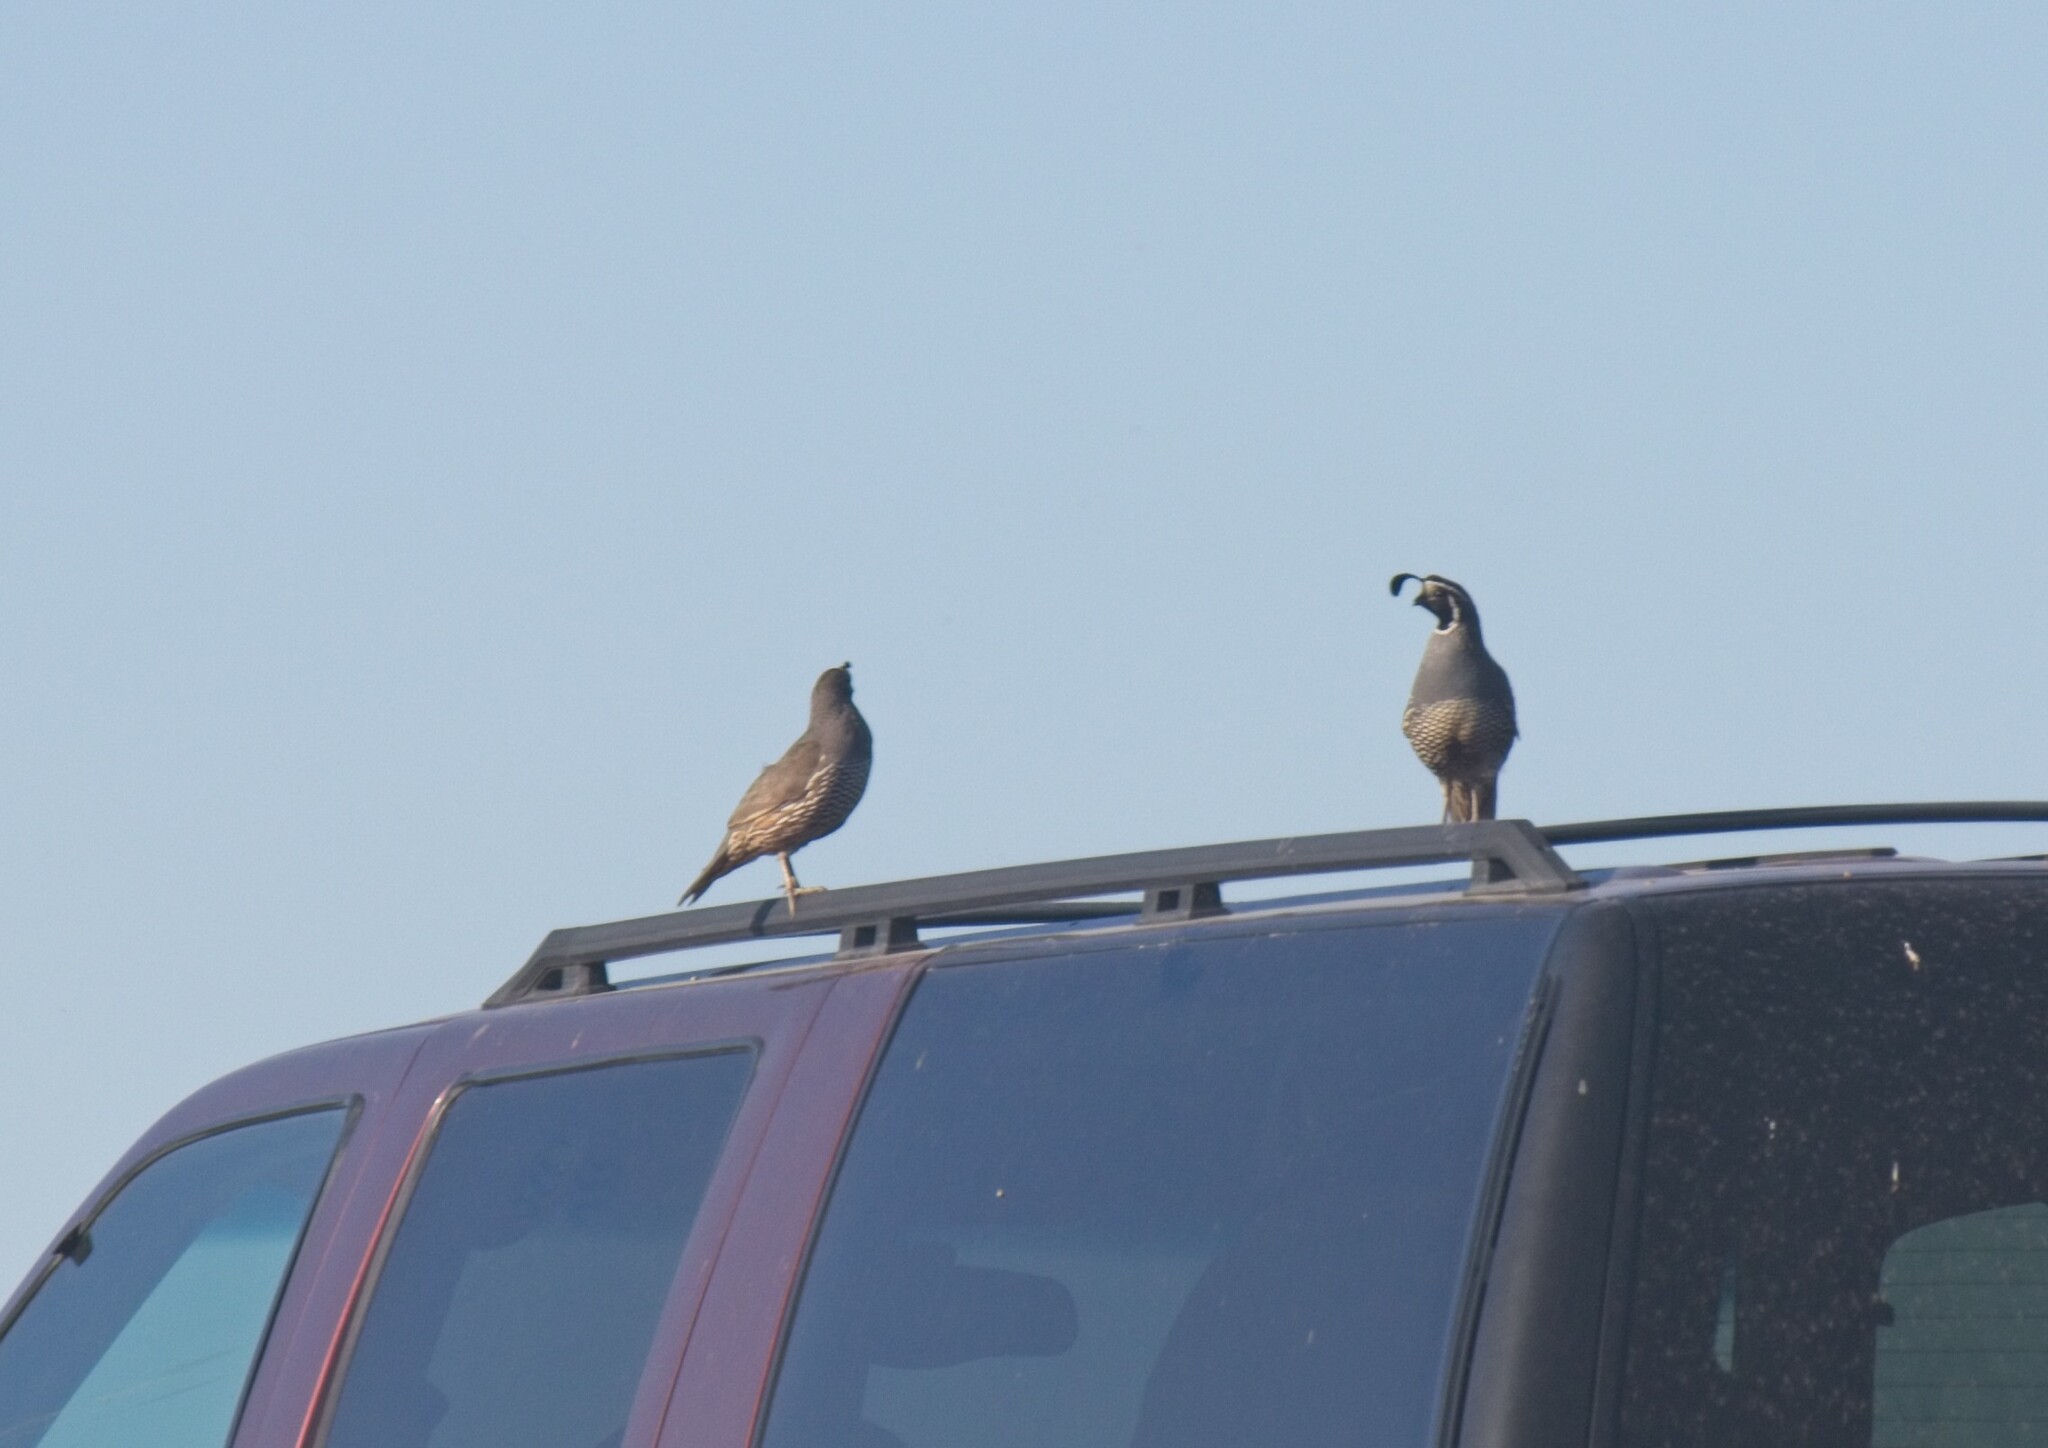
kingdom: Animalia
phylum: Chordata
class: Aves
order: Galliformes
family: Odontophoridae
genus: Callipepla
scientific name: Callipepla californica
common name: California quail
